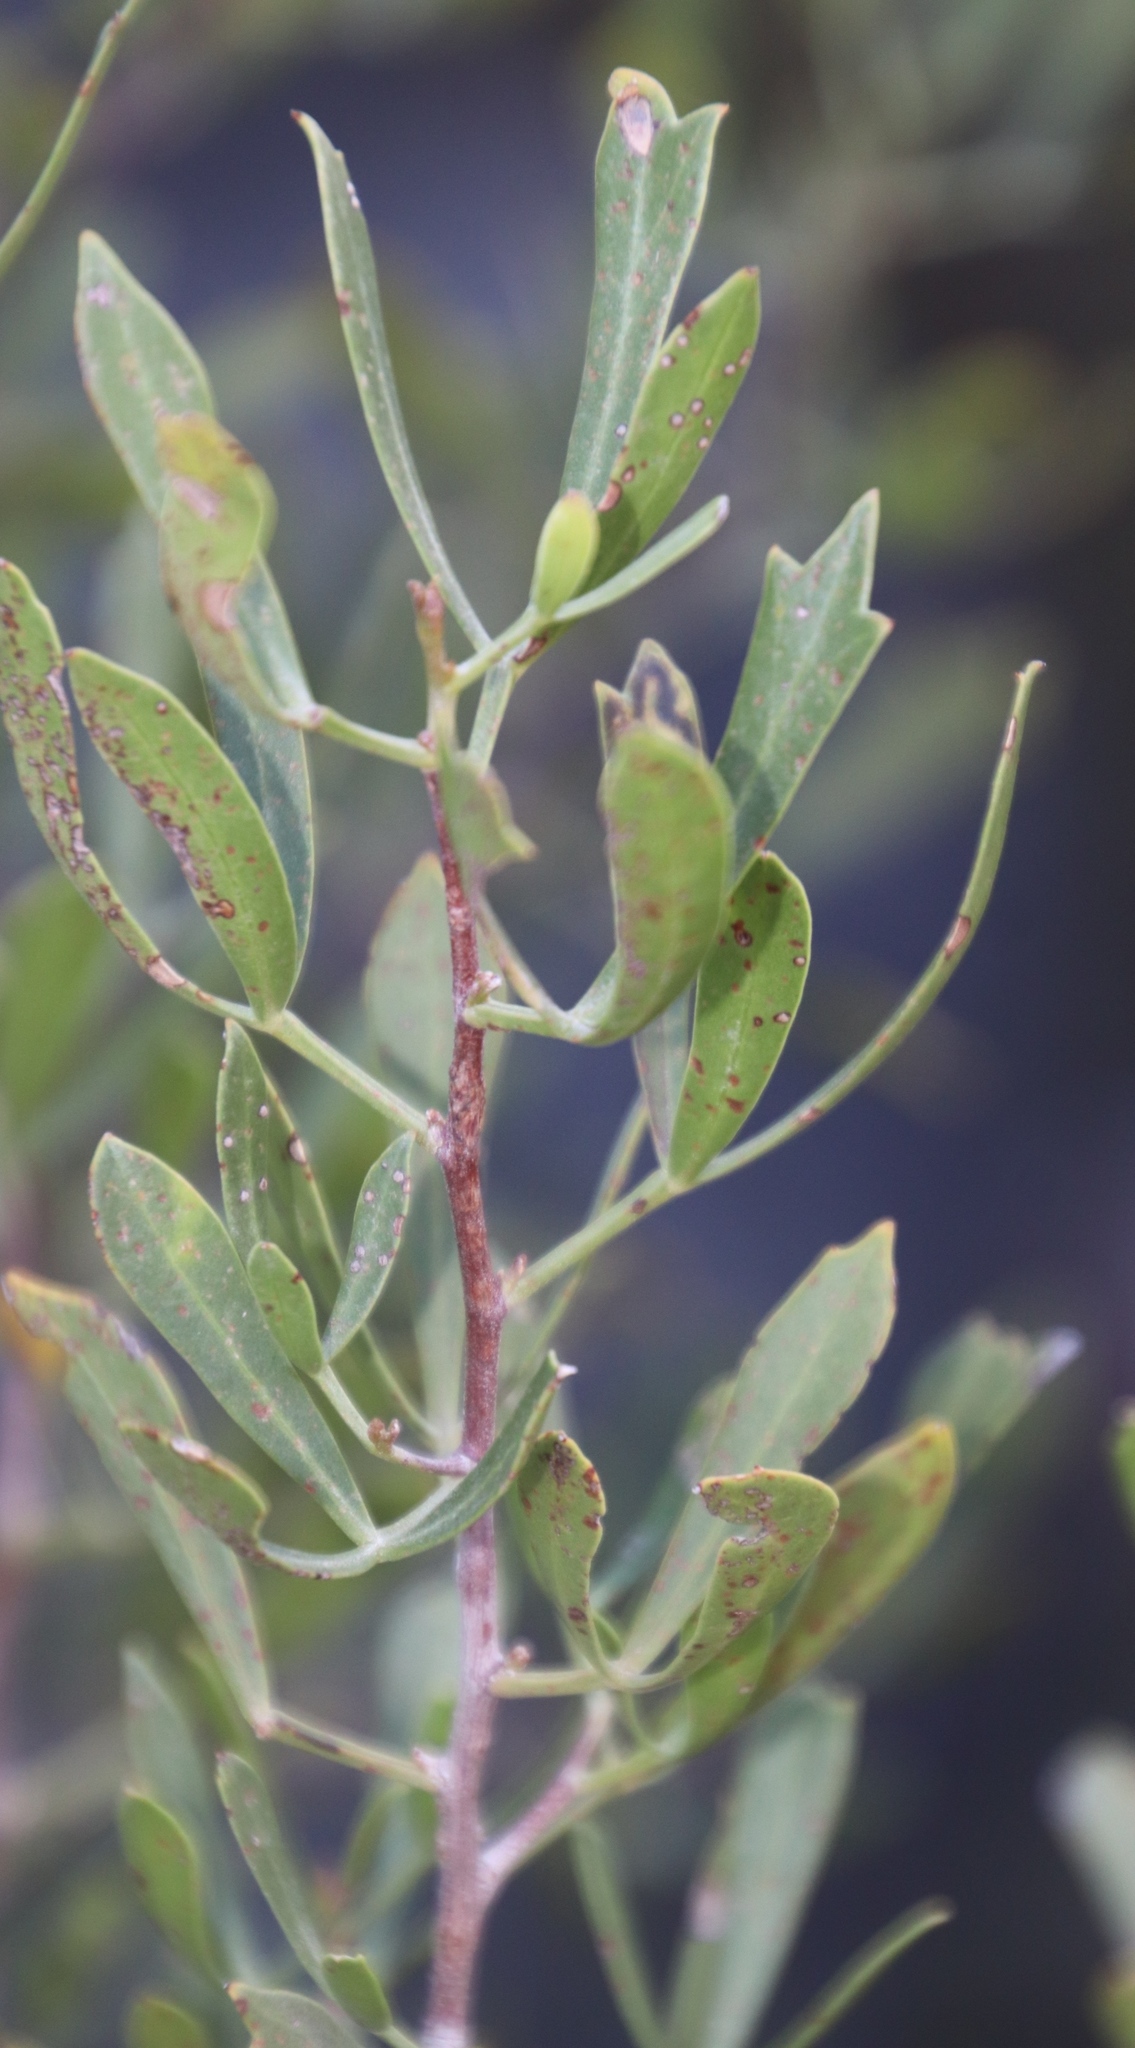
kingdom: Plantae
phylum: Tracheophyta
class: Magnoliopsida
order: Sapindales
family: Anacardiaceae
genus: Searsia
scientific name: Searsia rimosa
